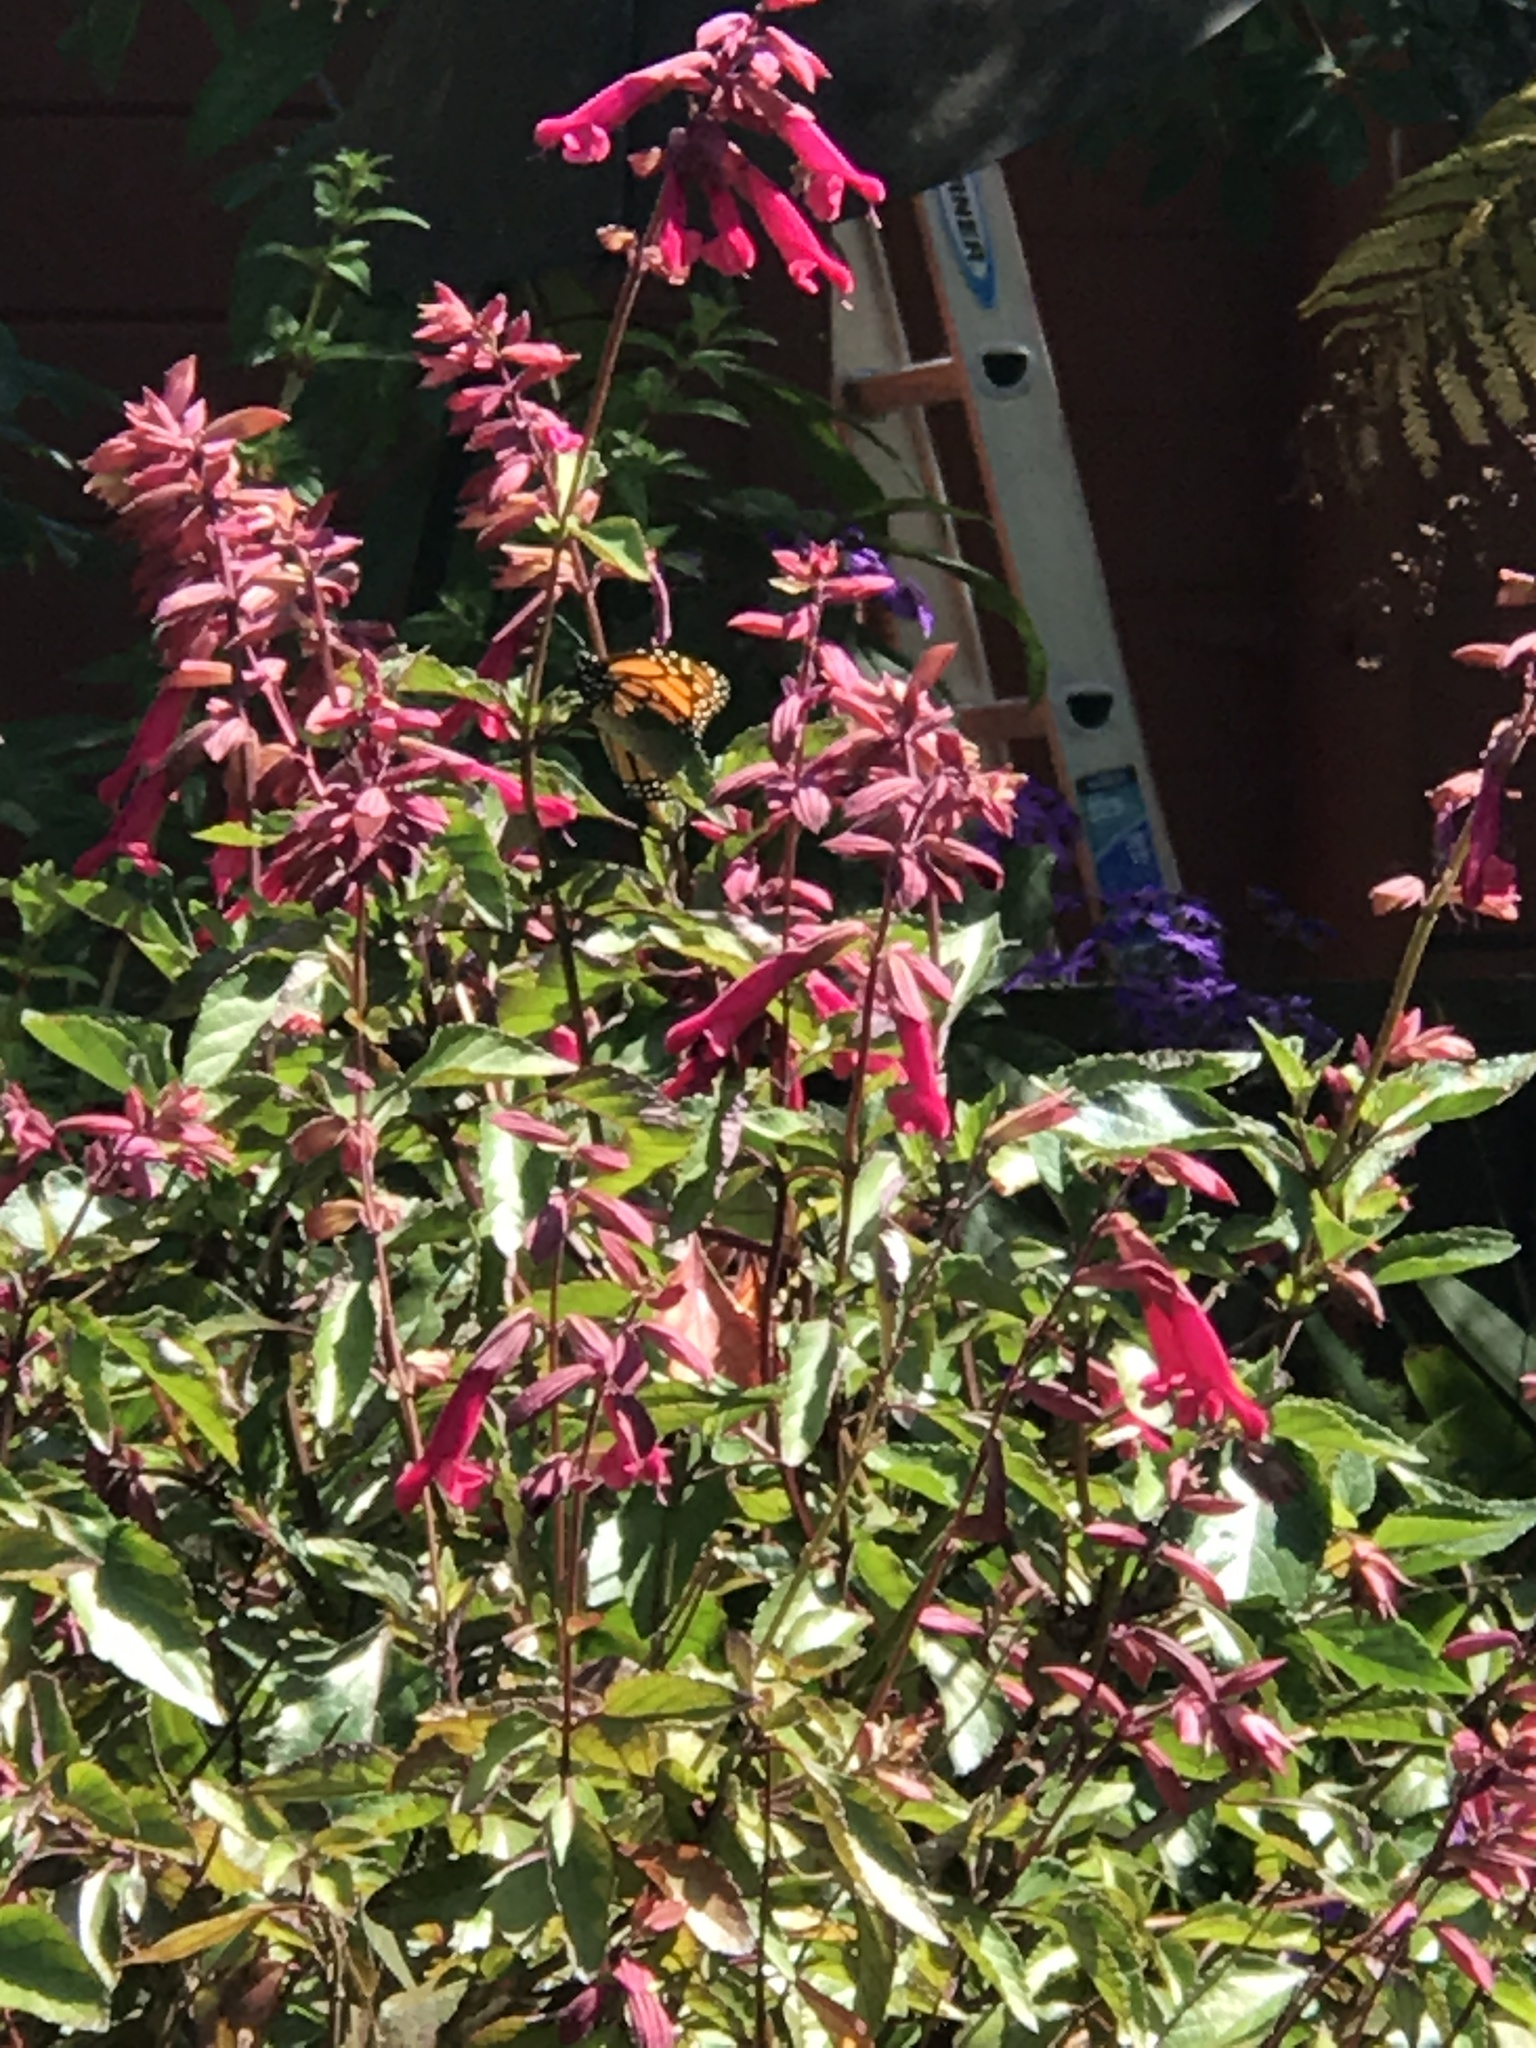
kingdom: Animalia
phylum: Arthropoda
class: Insecta
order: Lepidoptera
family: Nymphalidae
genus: Danaus
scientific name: Danaus plexippus
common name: Monarch
